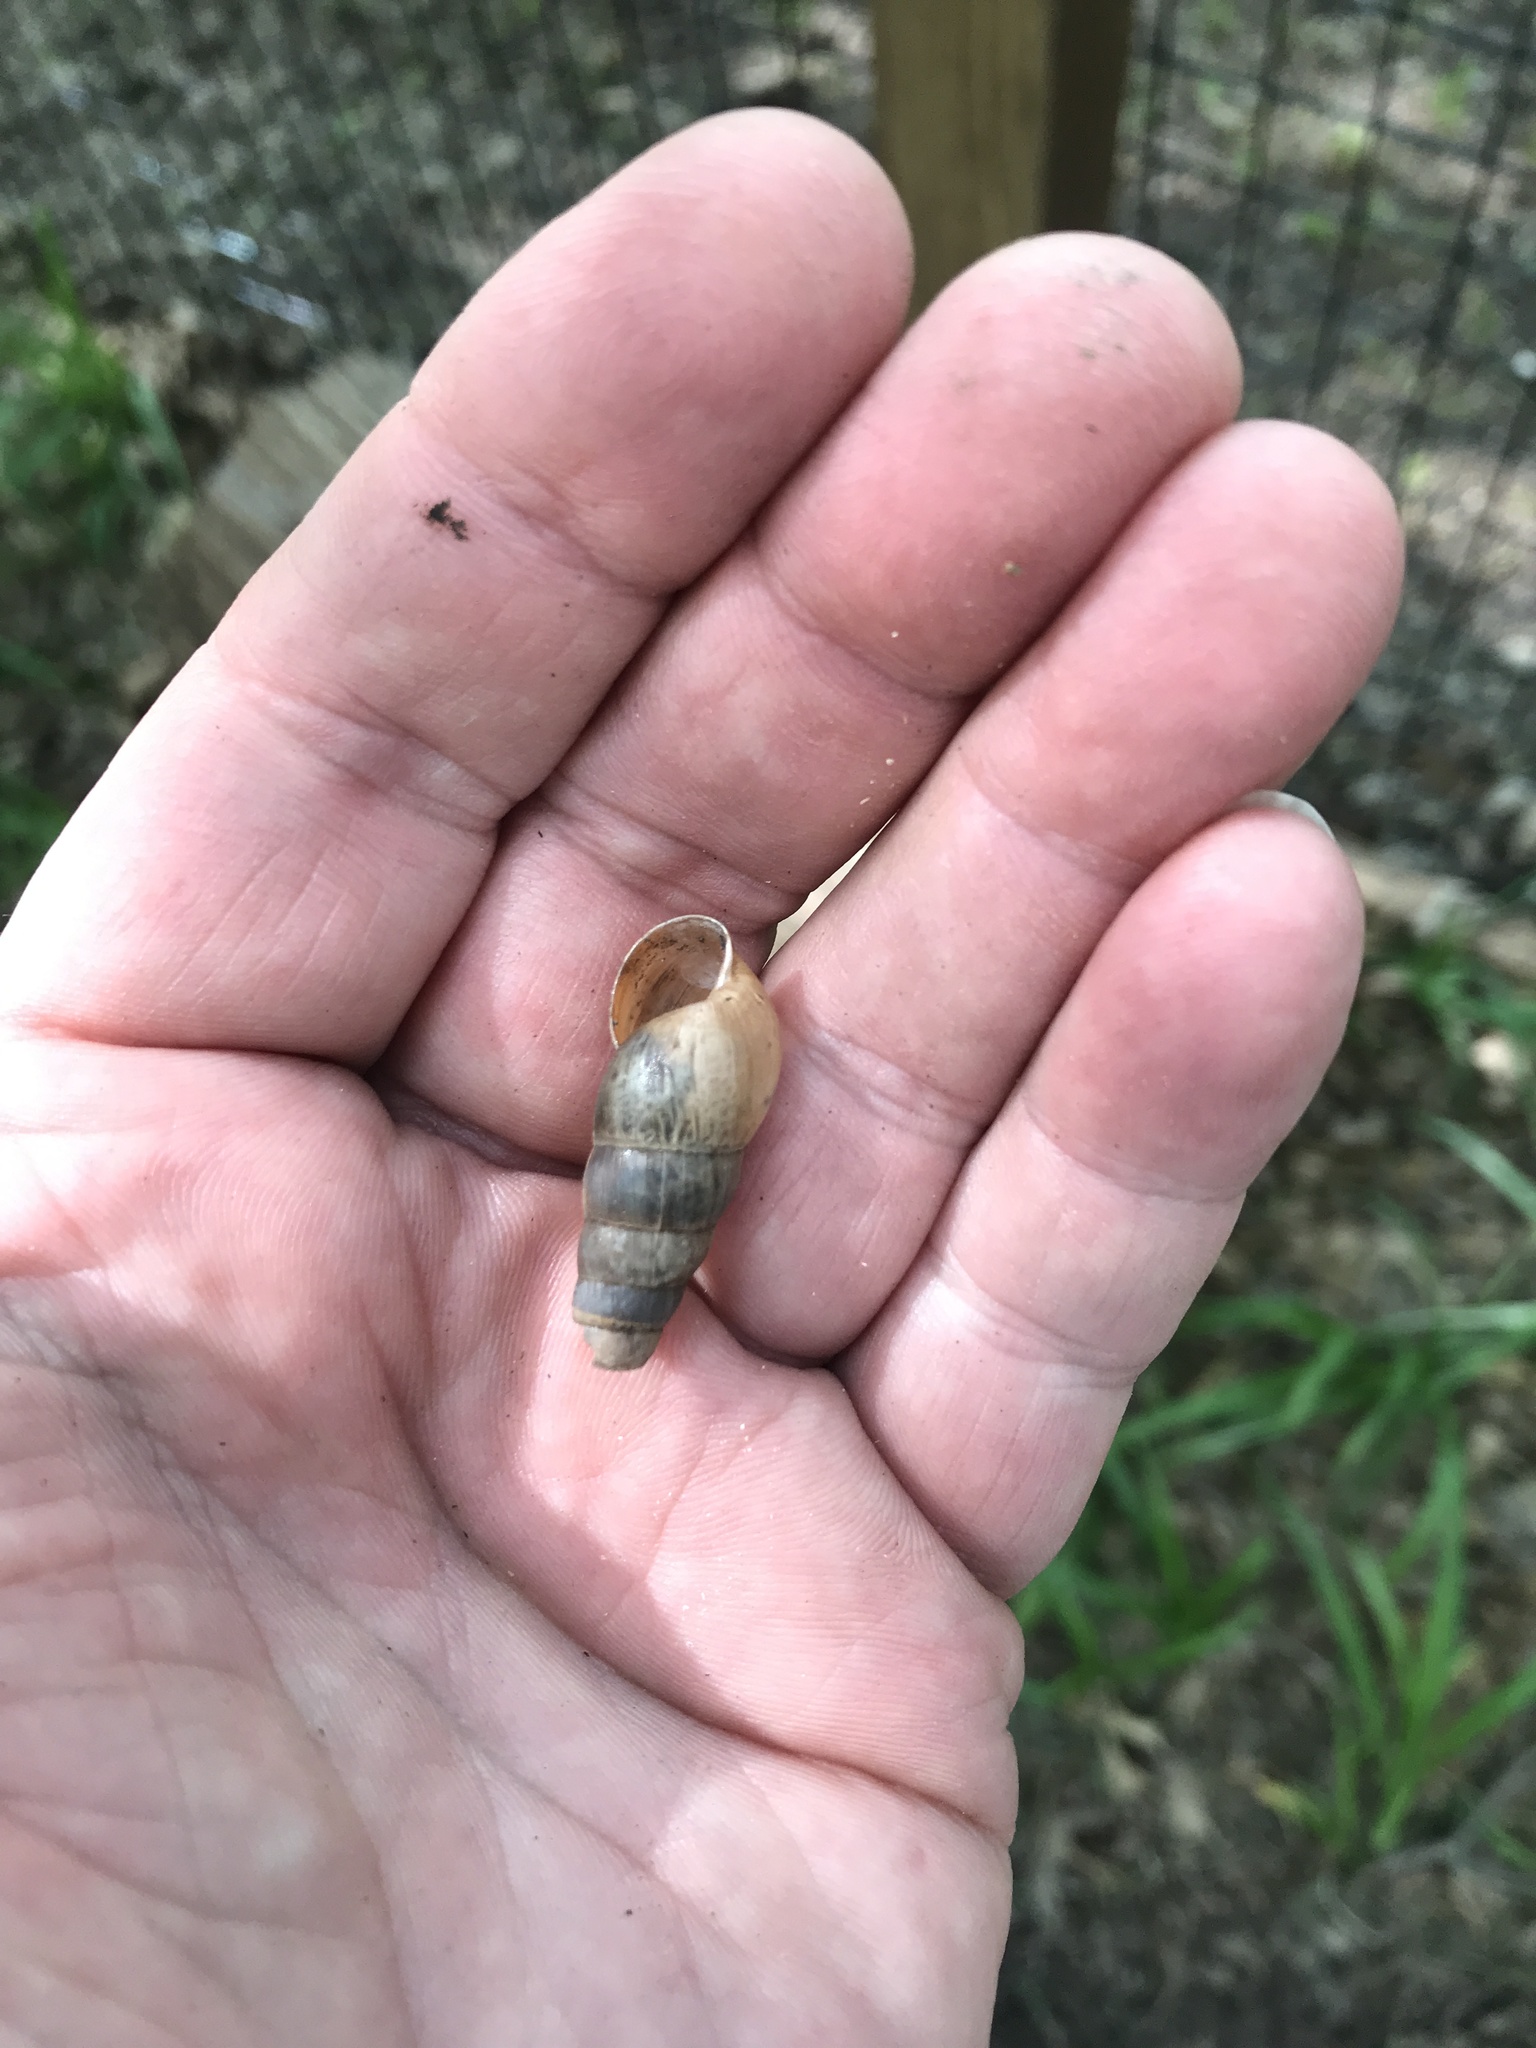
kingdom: Animalia
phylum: Mollusca
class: Gastropoda
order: Stylommatophora
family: Achatinidae
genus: Rumina
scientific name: Rumina decollata
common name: Decollate snail
